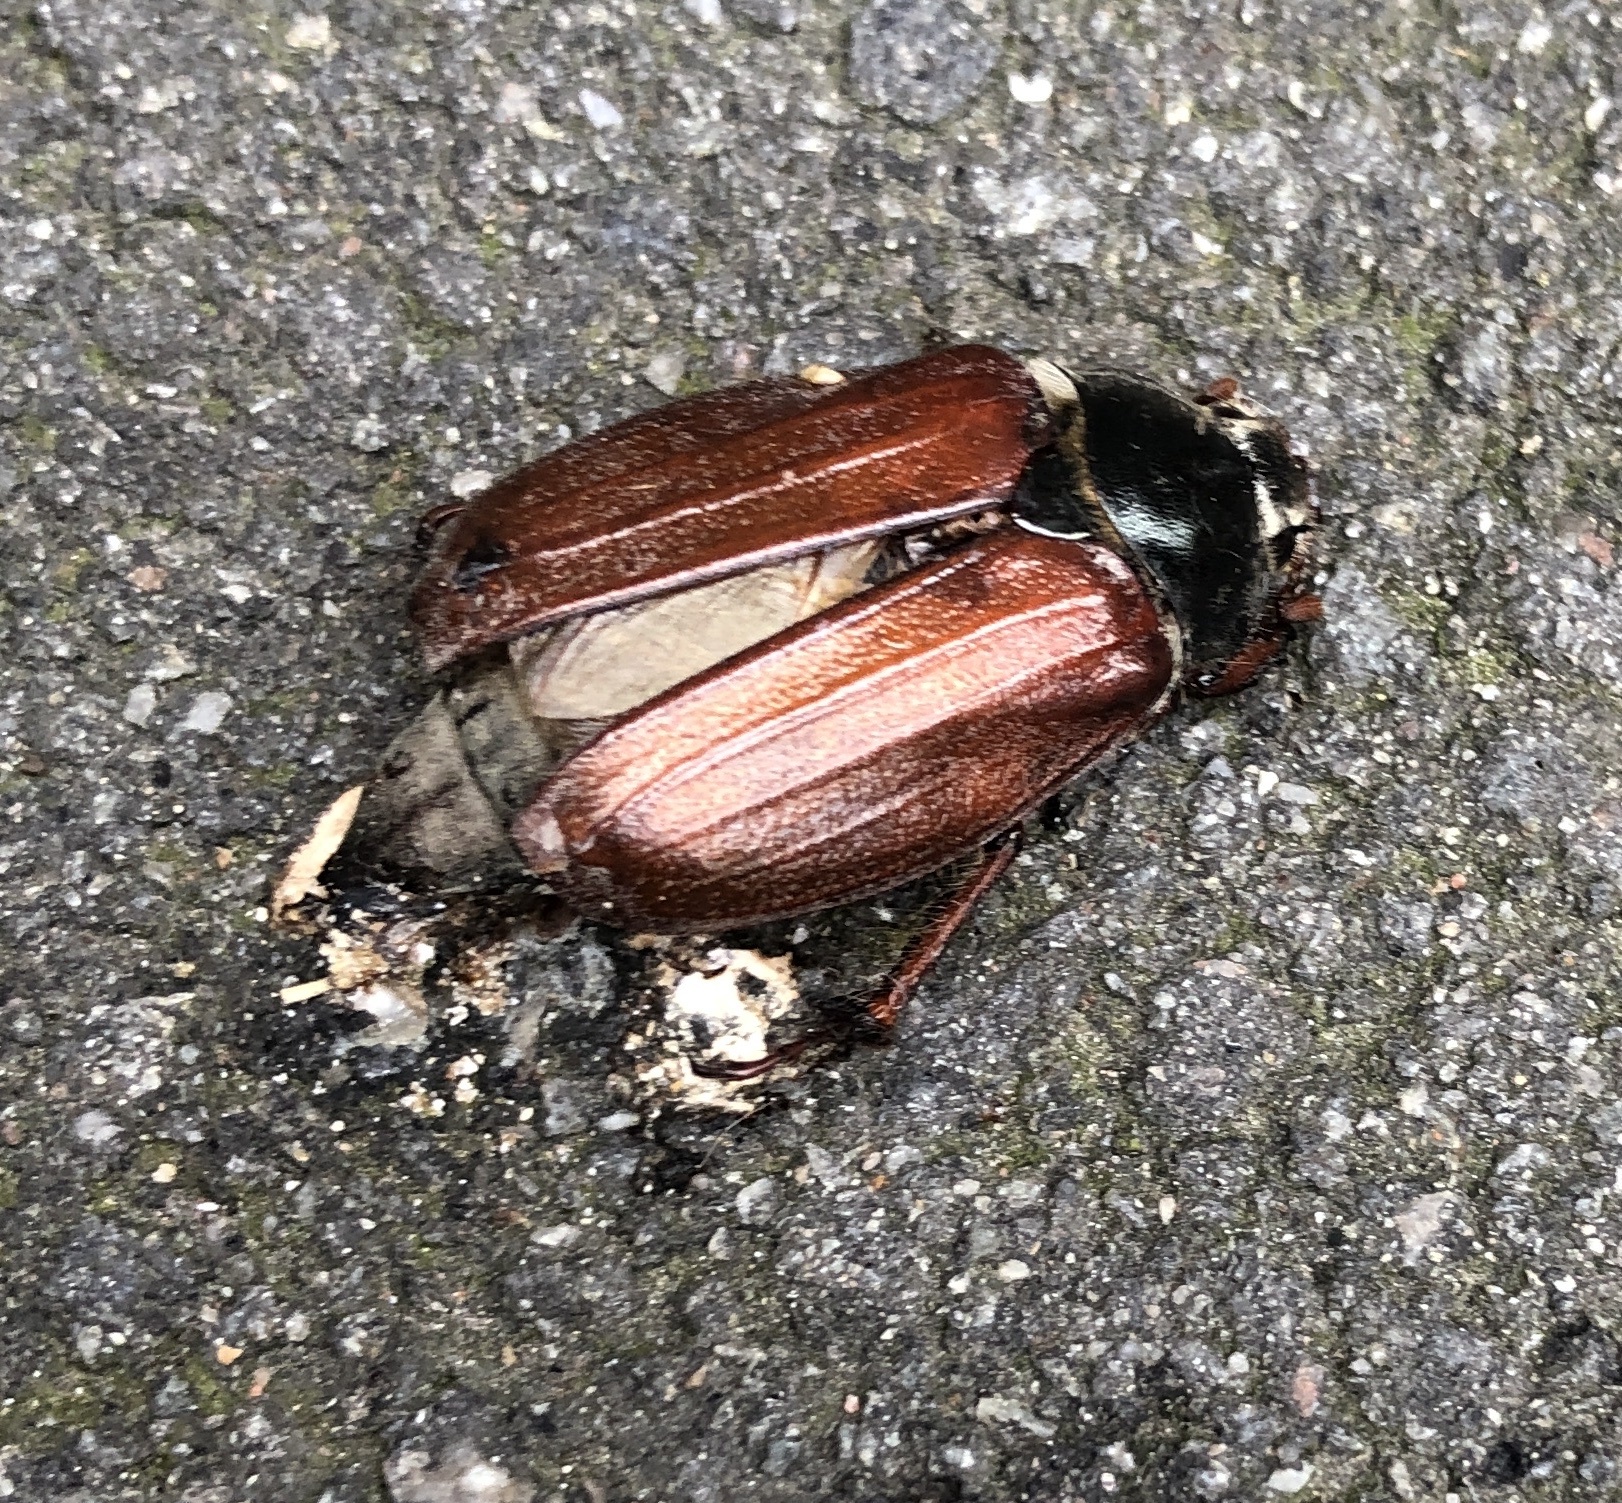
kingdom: Animalia
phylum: Arthropoda
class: Insecta
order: Coleoptera
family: Scarabaeidae
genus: Melolontha
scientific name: Melolontha melolontha
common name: Cockchafer maybeetle
